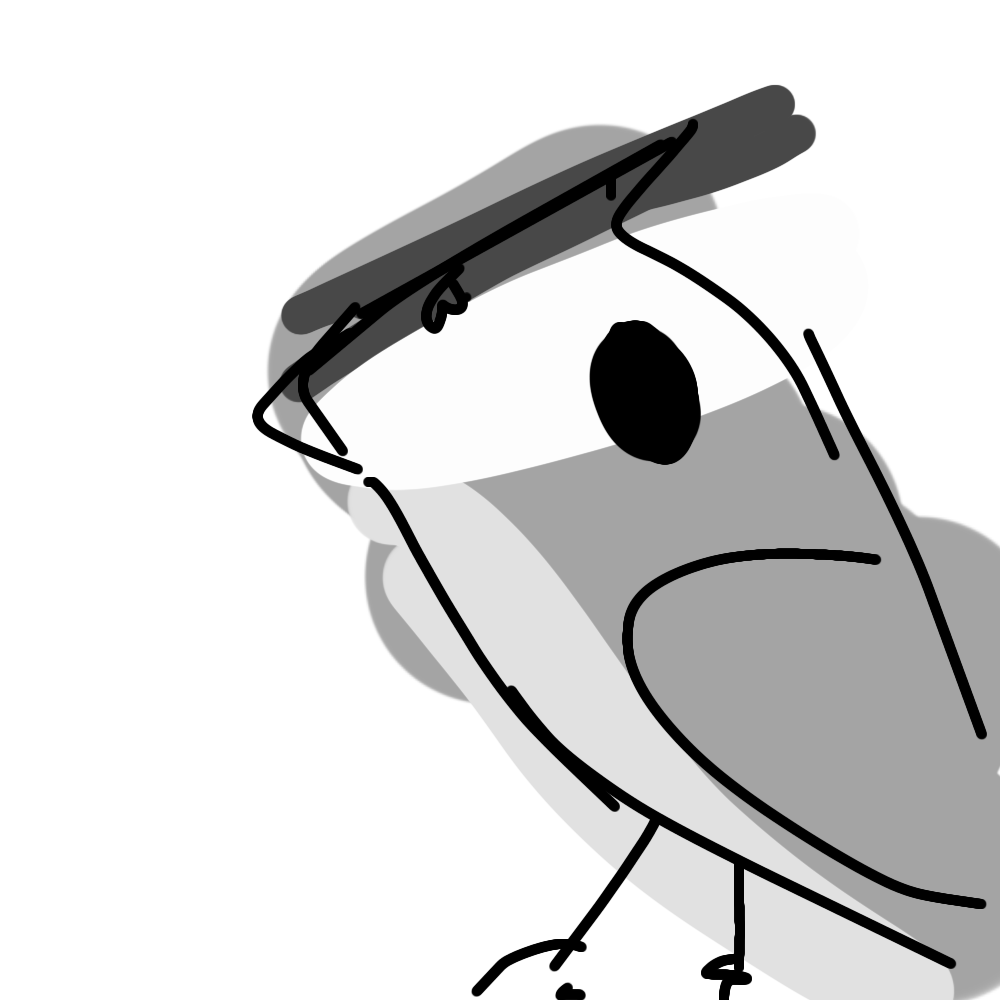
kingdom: Animalia
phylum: Chordata
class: Aves
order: Passeriformes
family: Paridae
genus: Baeolophus
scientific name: Baeolophus bicolor
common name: Tufted titmouse
